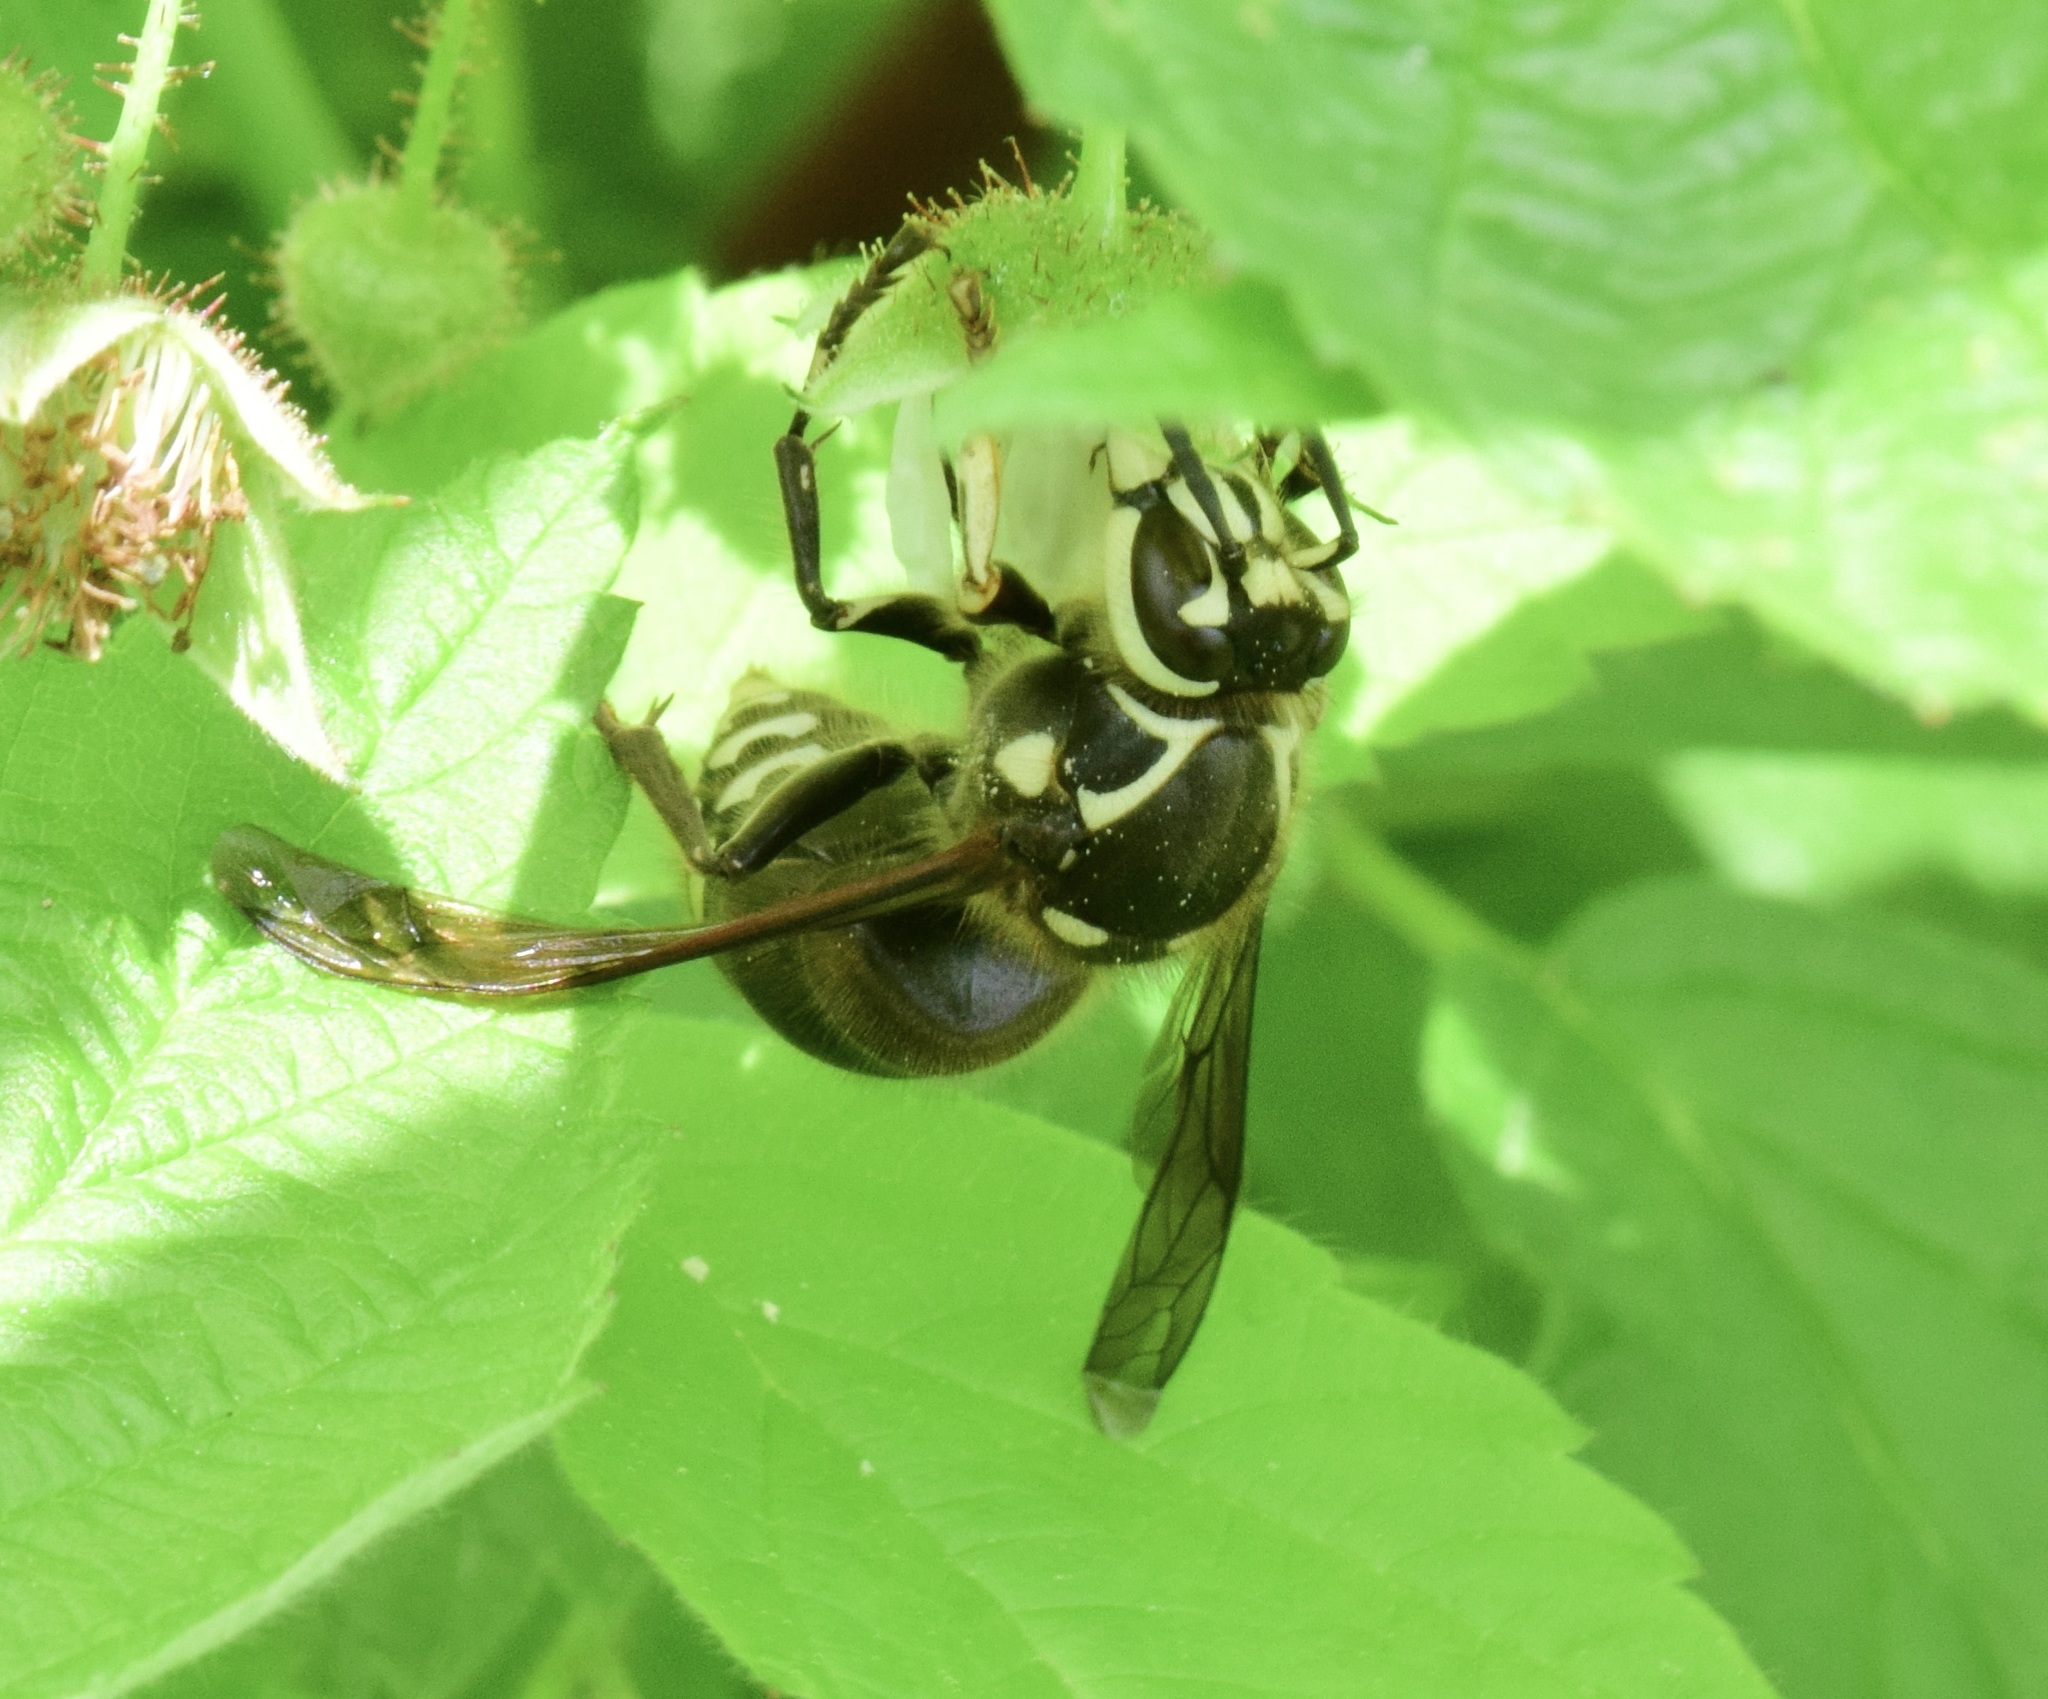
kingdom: Animalia
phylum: Arthropoda
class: Insecta
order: Hymenoptera
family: Vespidae
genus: Dolichovespula
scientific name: Dolichovespula maculata
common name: Bald-faced hornet
